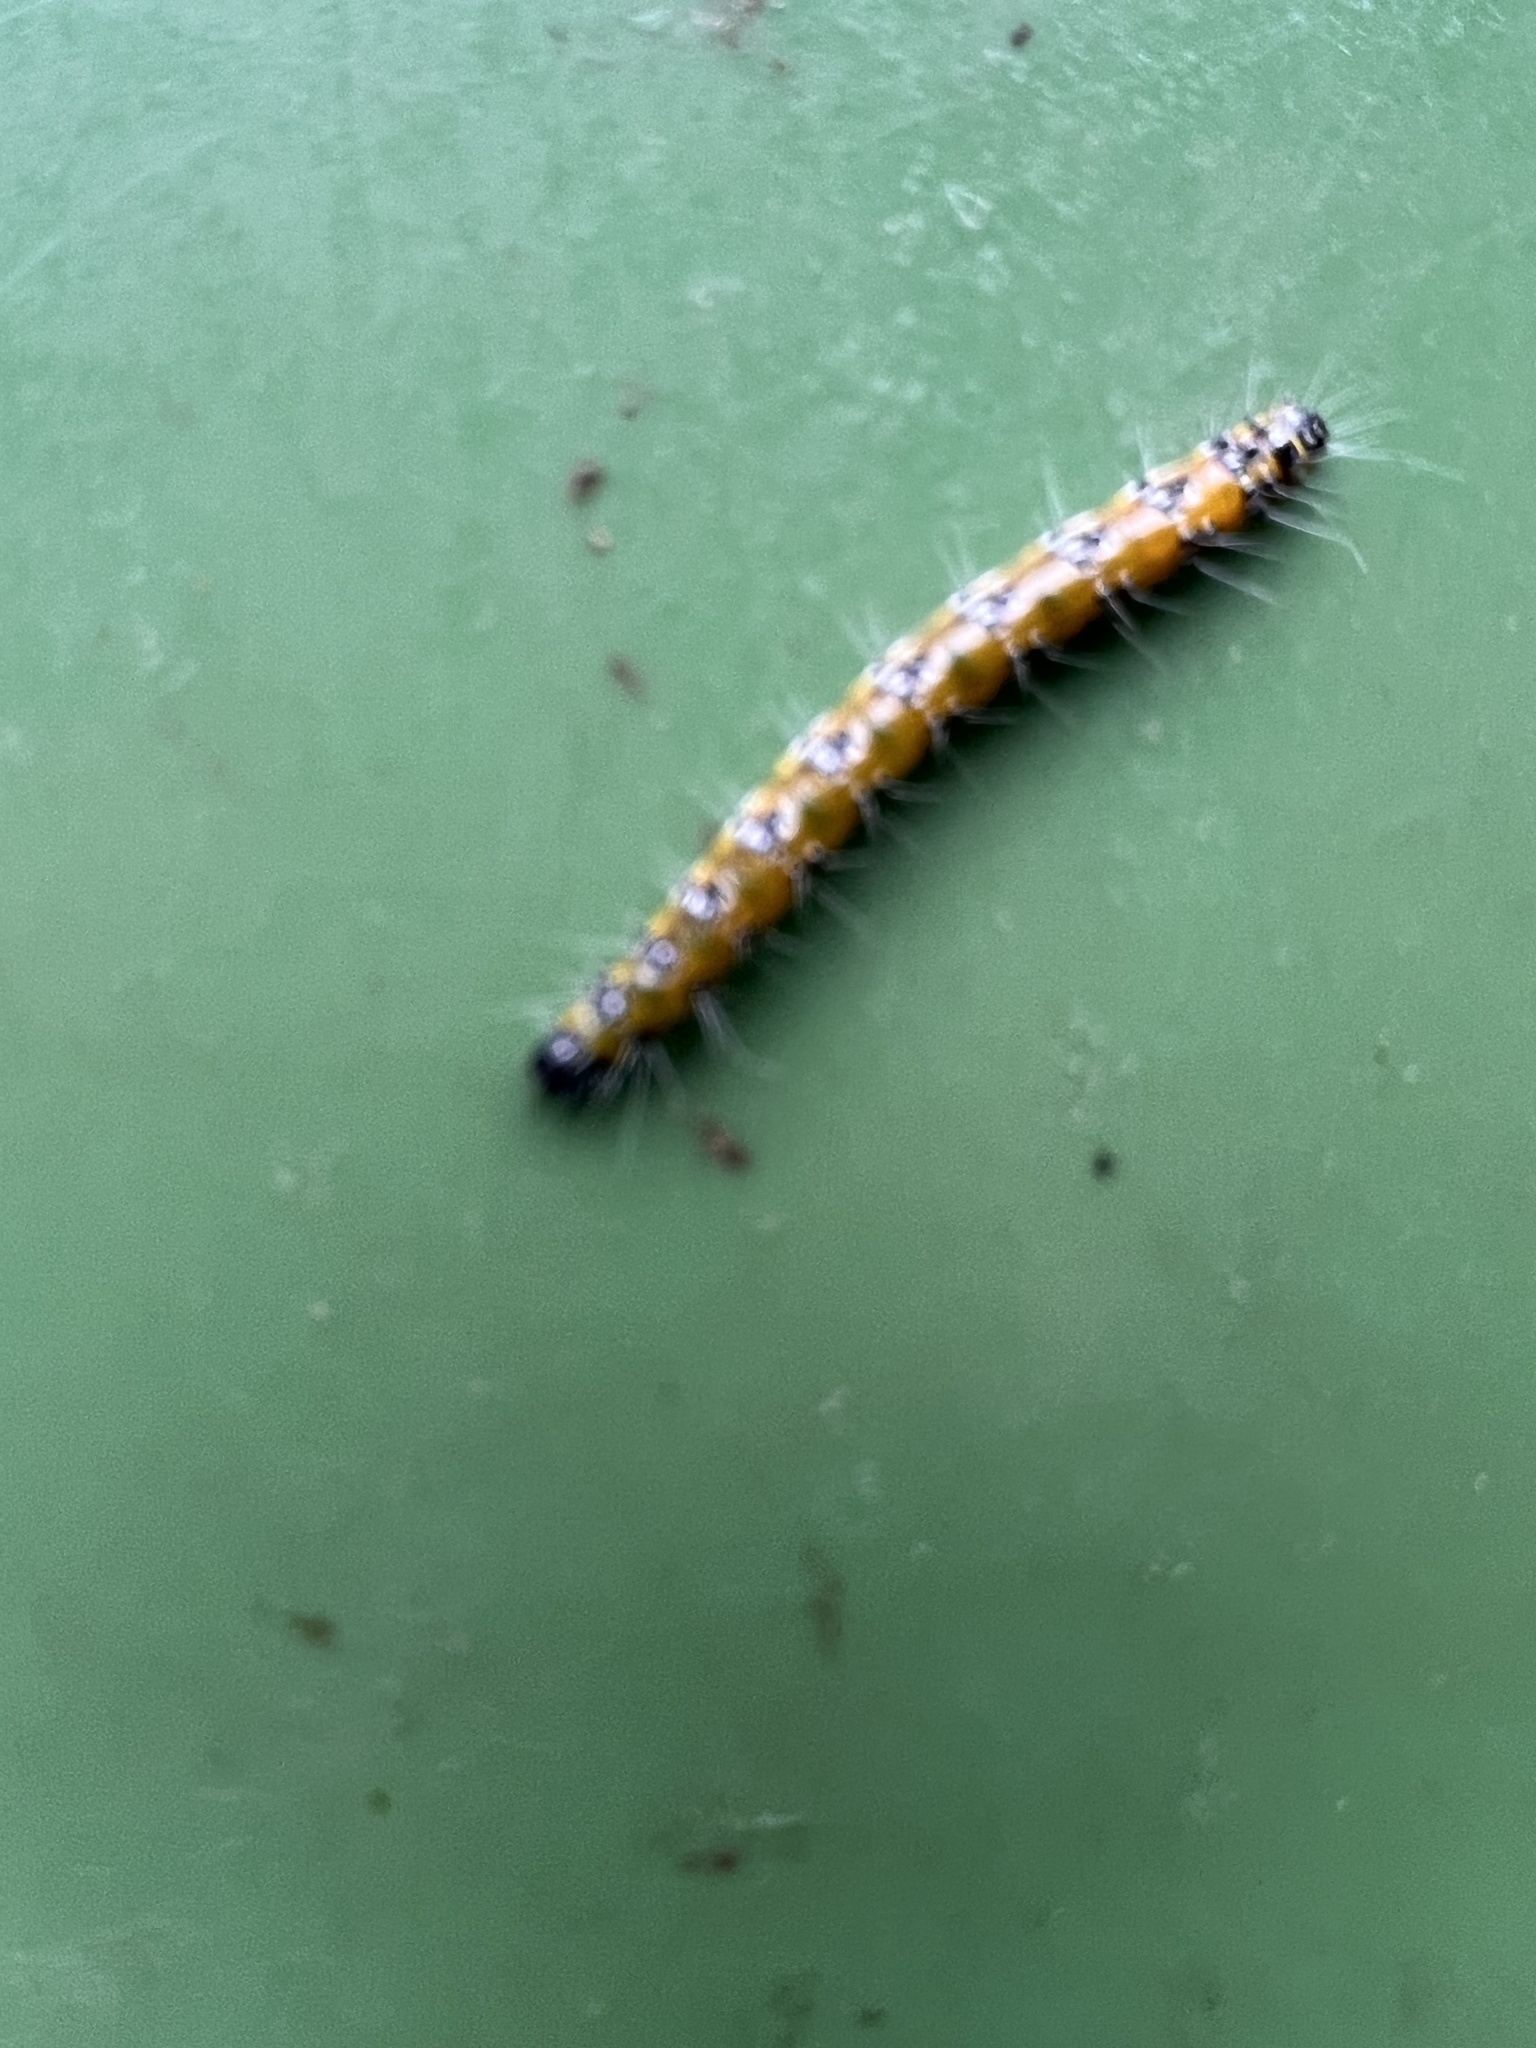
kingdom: Animalia
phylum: Arthropoda
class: Insecta
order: Lepidoptera
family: Crambidae
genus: Uresiphita
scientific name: Uresiphita reversalis
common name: Genista broom moth
